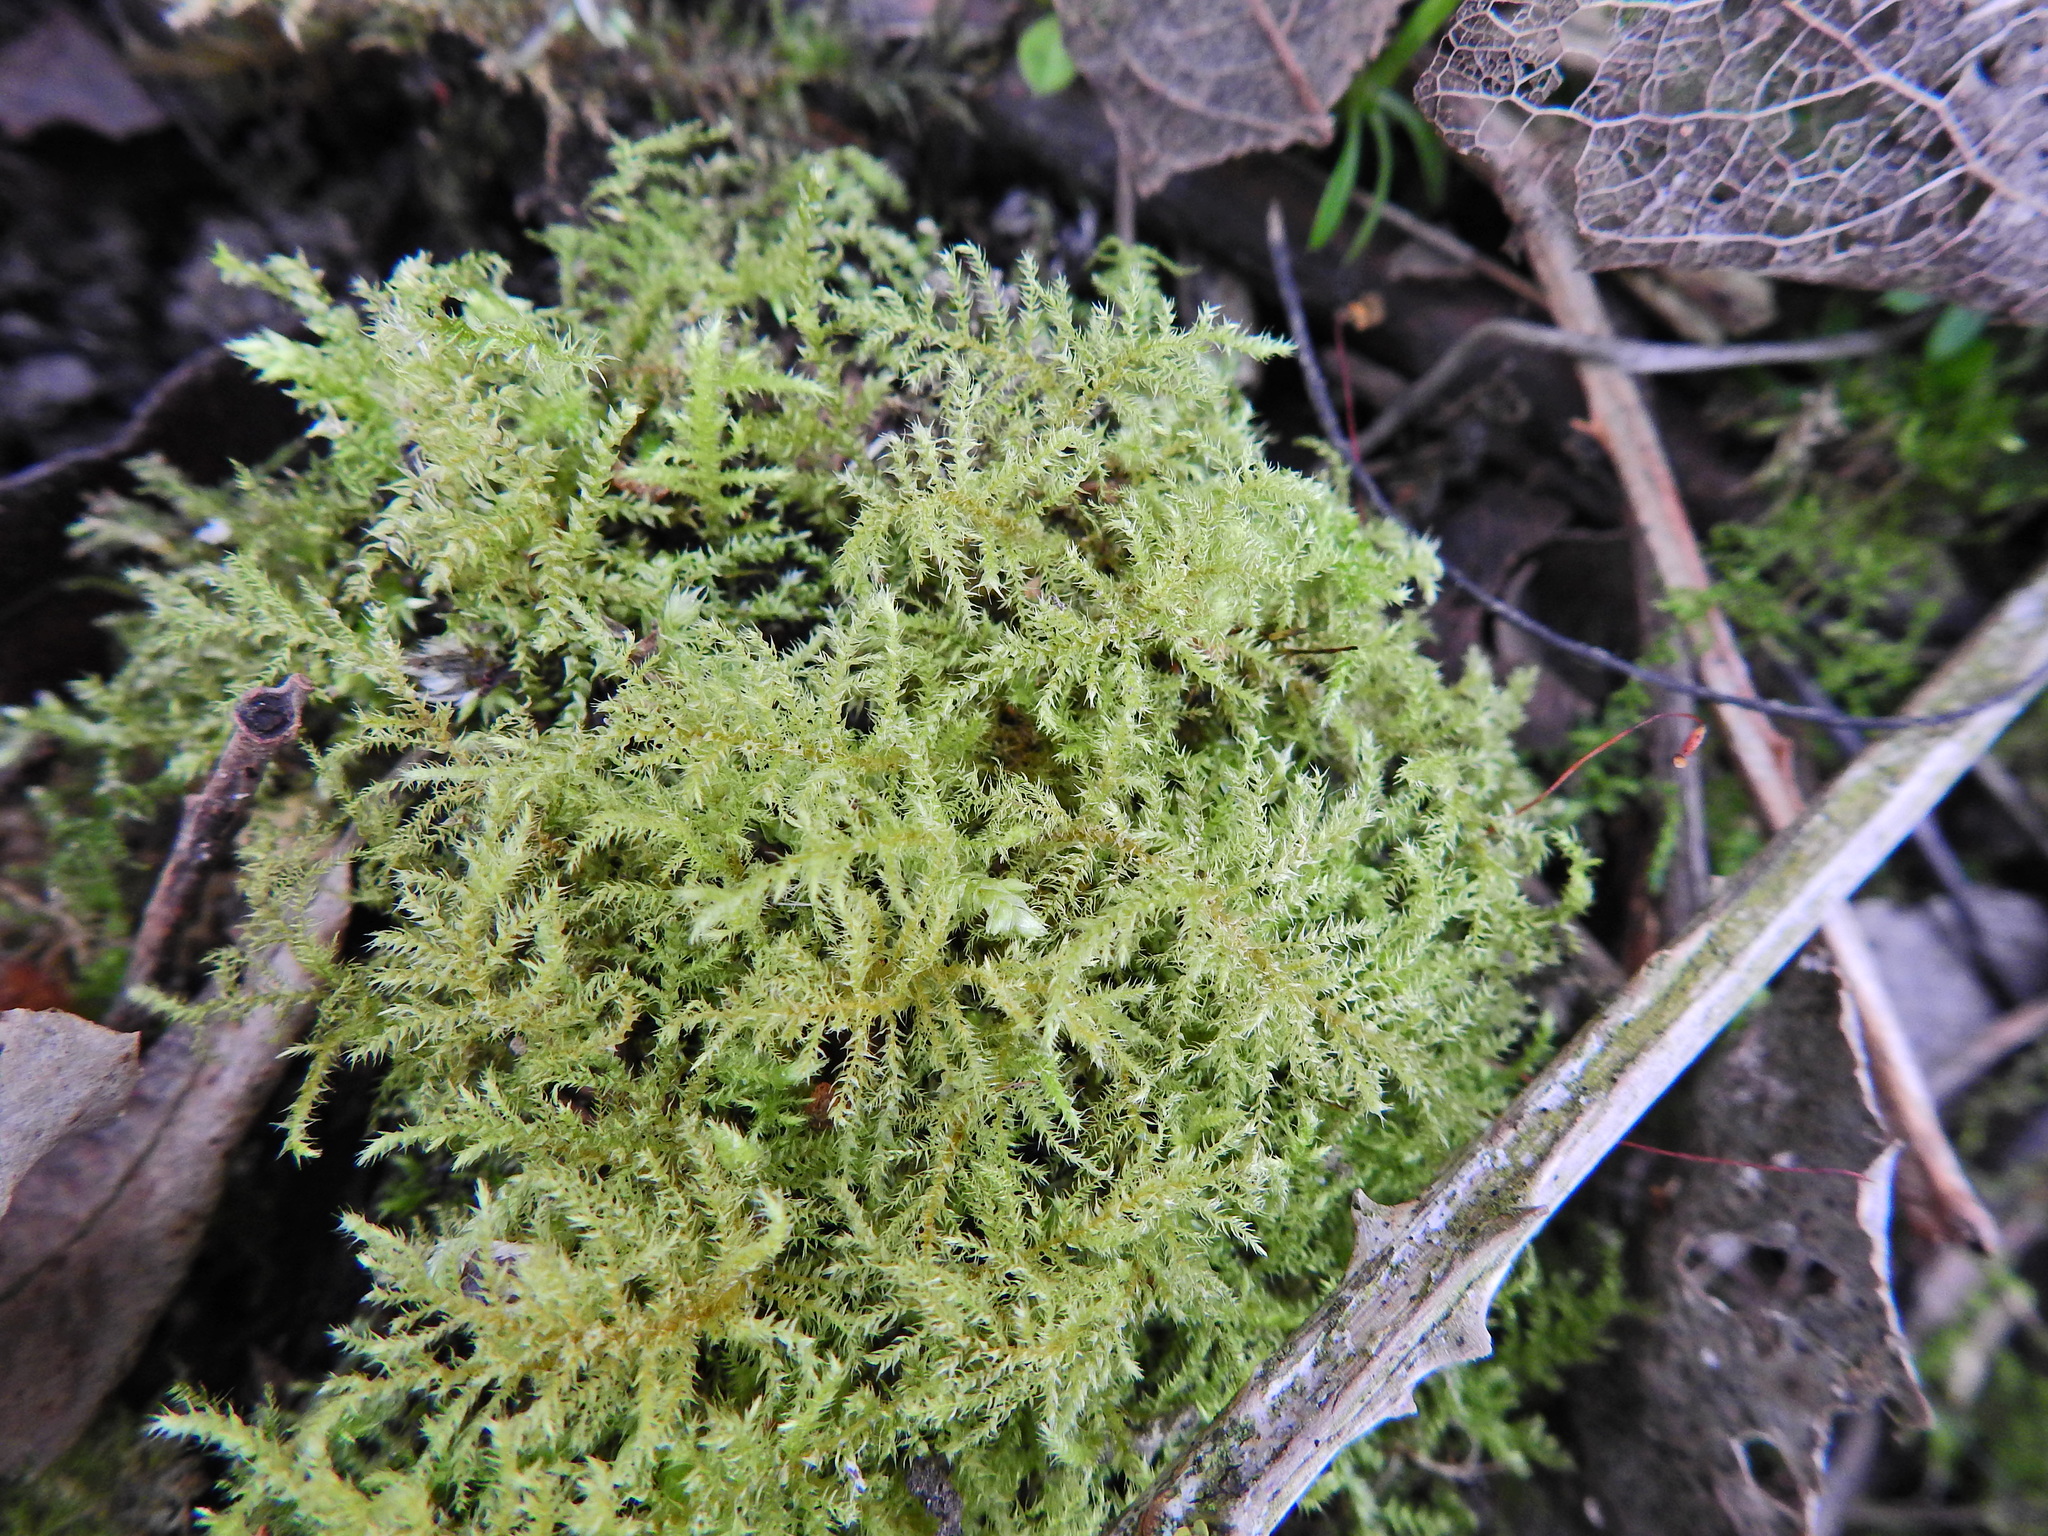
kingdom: Plantae
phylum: Bryophyta
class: Bryopsida
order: Hypnales
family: Brachytheciaceae
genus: Kindbergia
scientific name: Kindbergia praelonga
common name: Slender beaked moss
